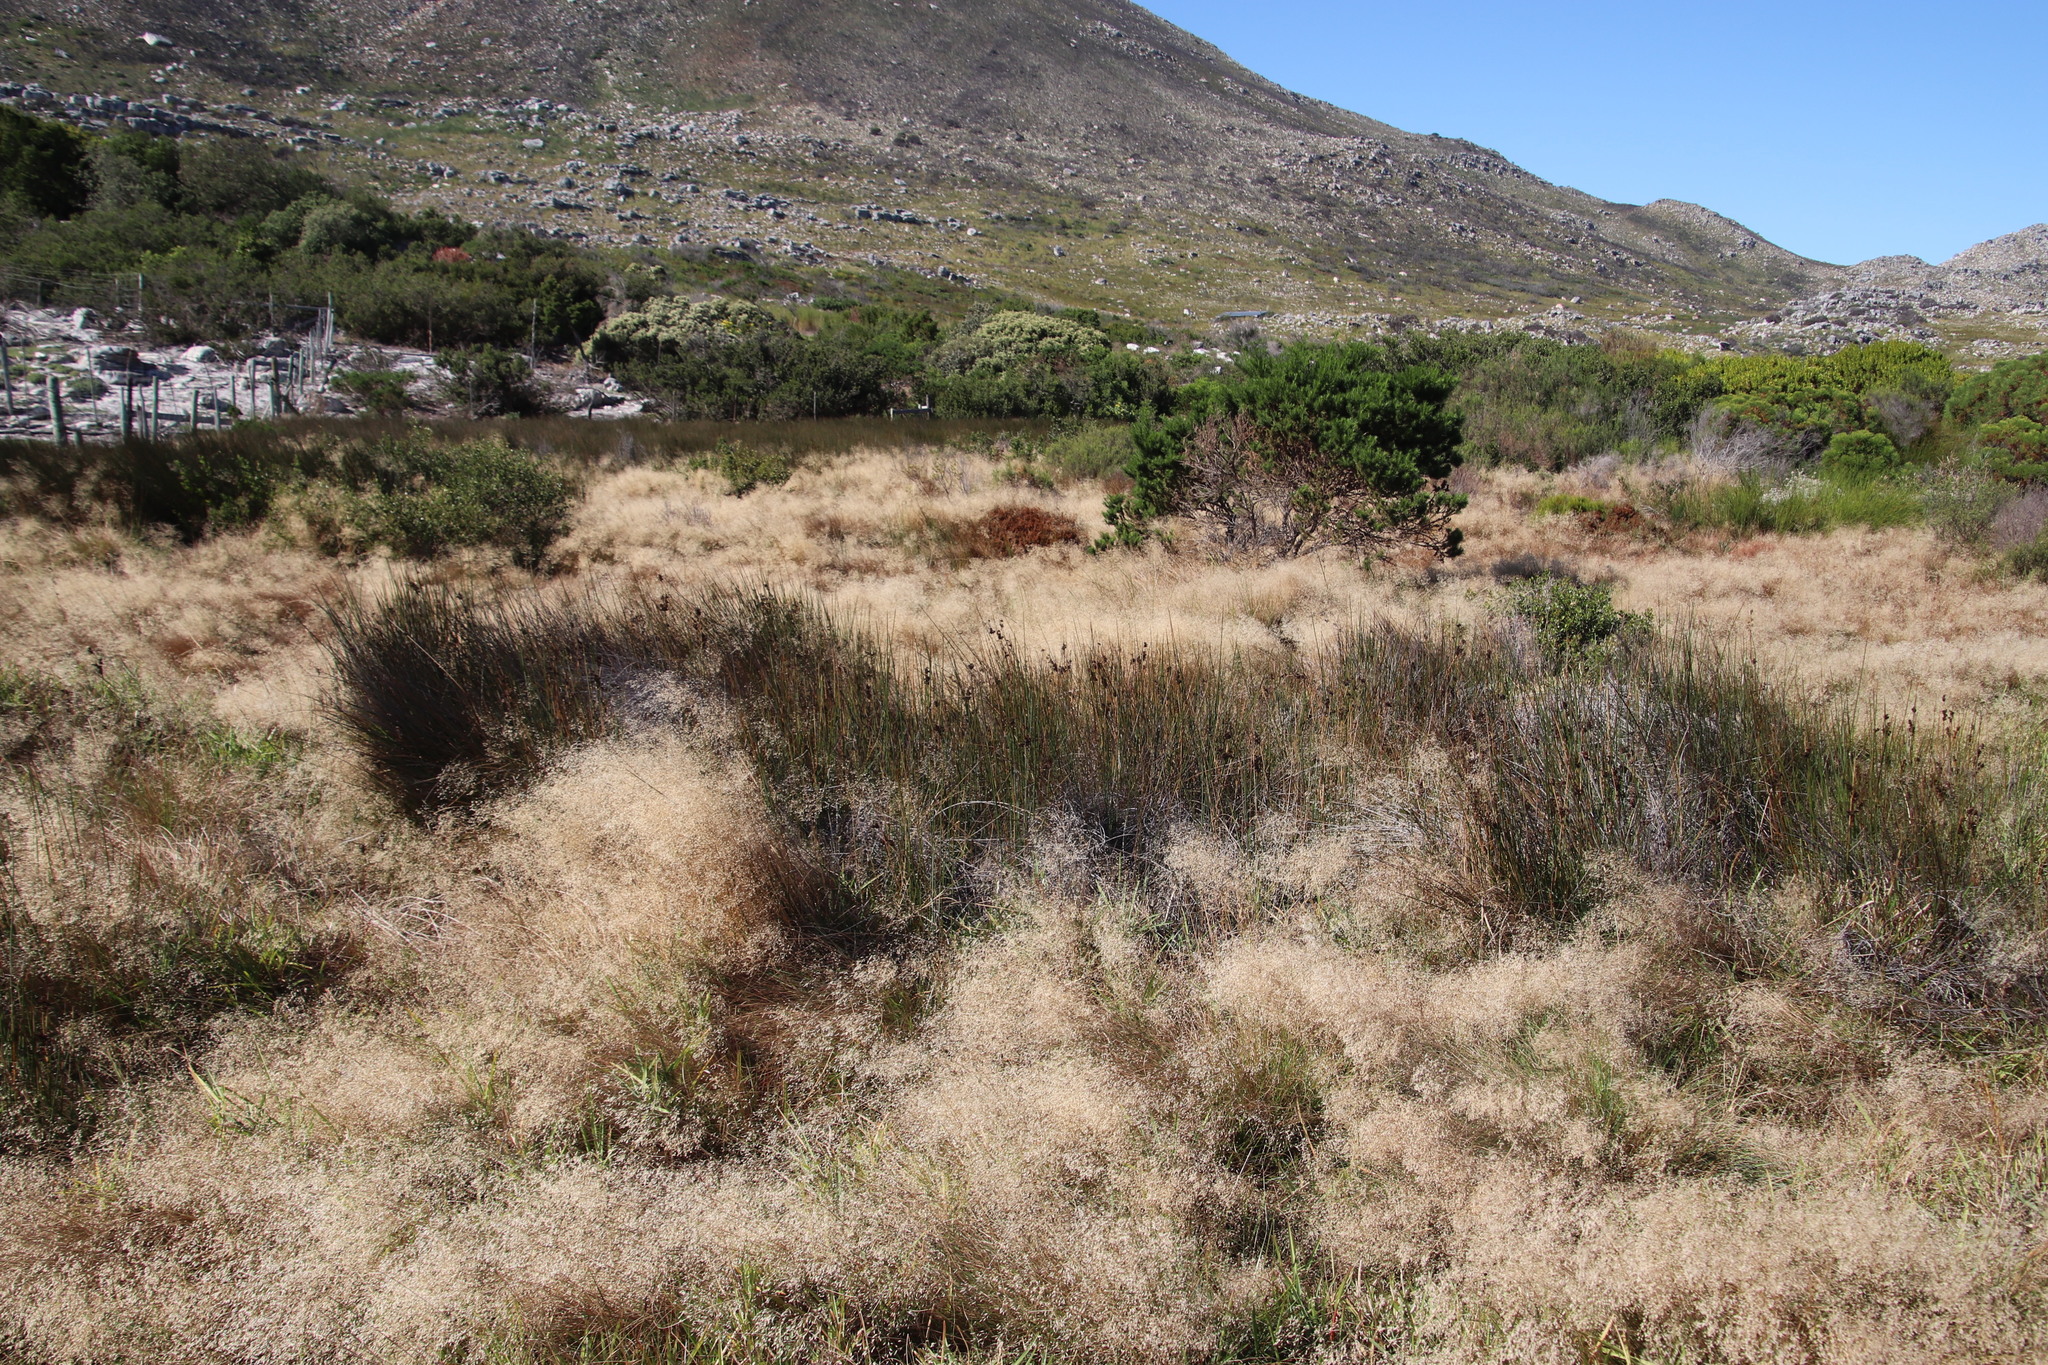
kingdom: Plantae
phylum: Tracheophyta
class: Liliopsida
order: Poales
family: Juncaceae
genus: Juncus
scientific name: Juncus kraussii
